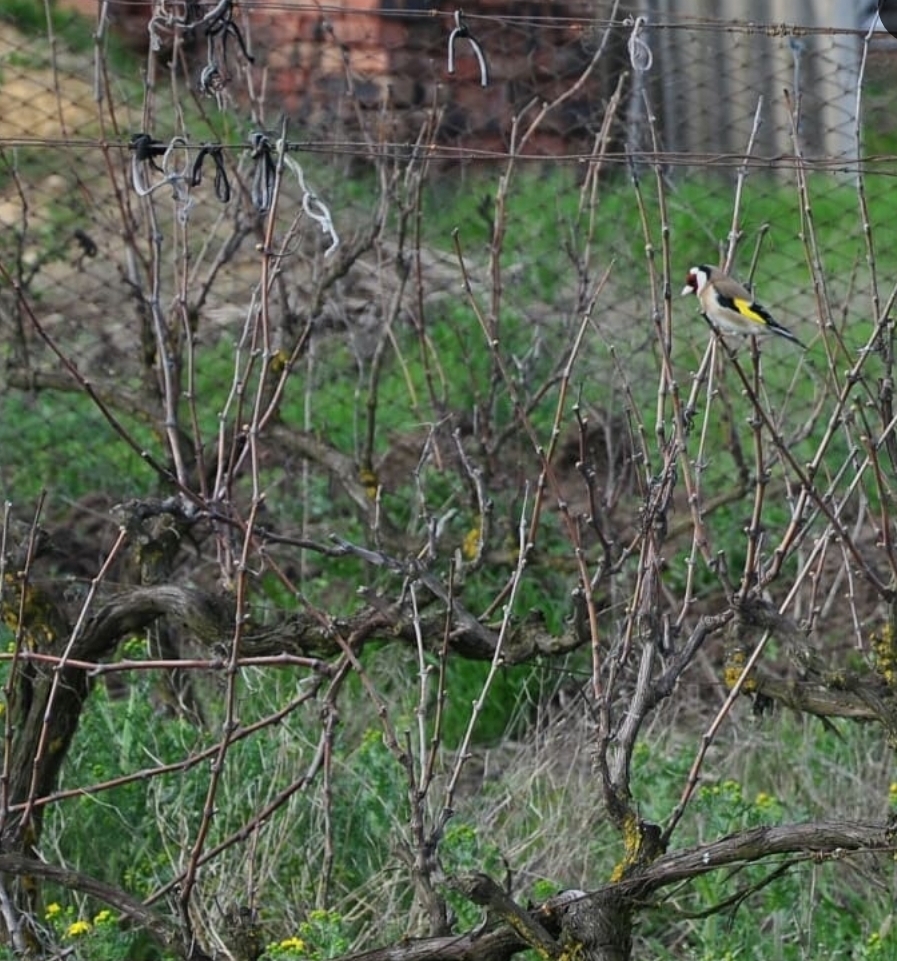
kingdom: Animalia
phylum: Chordata
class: Aves
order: Passeriformes
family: Fringillidae
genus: Carduelis
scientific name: Carduelis carduelis
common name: European goldfinch
